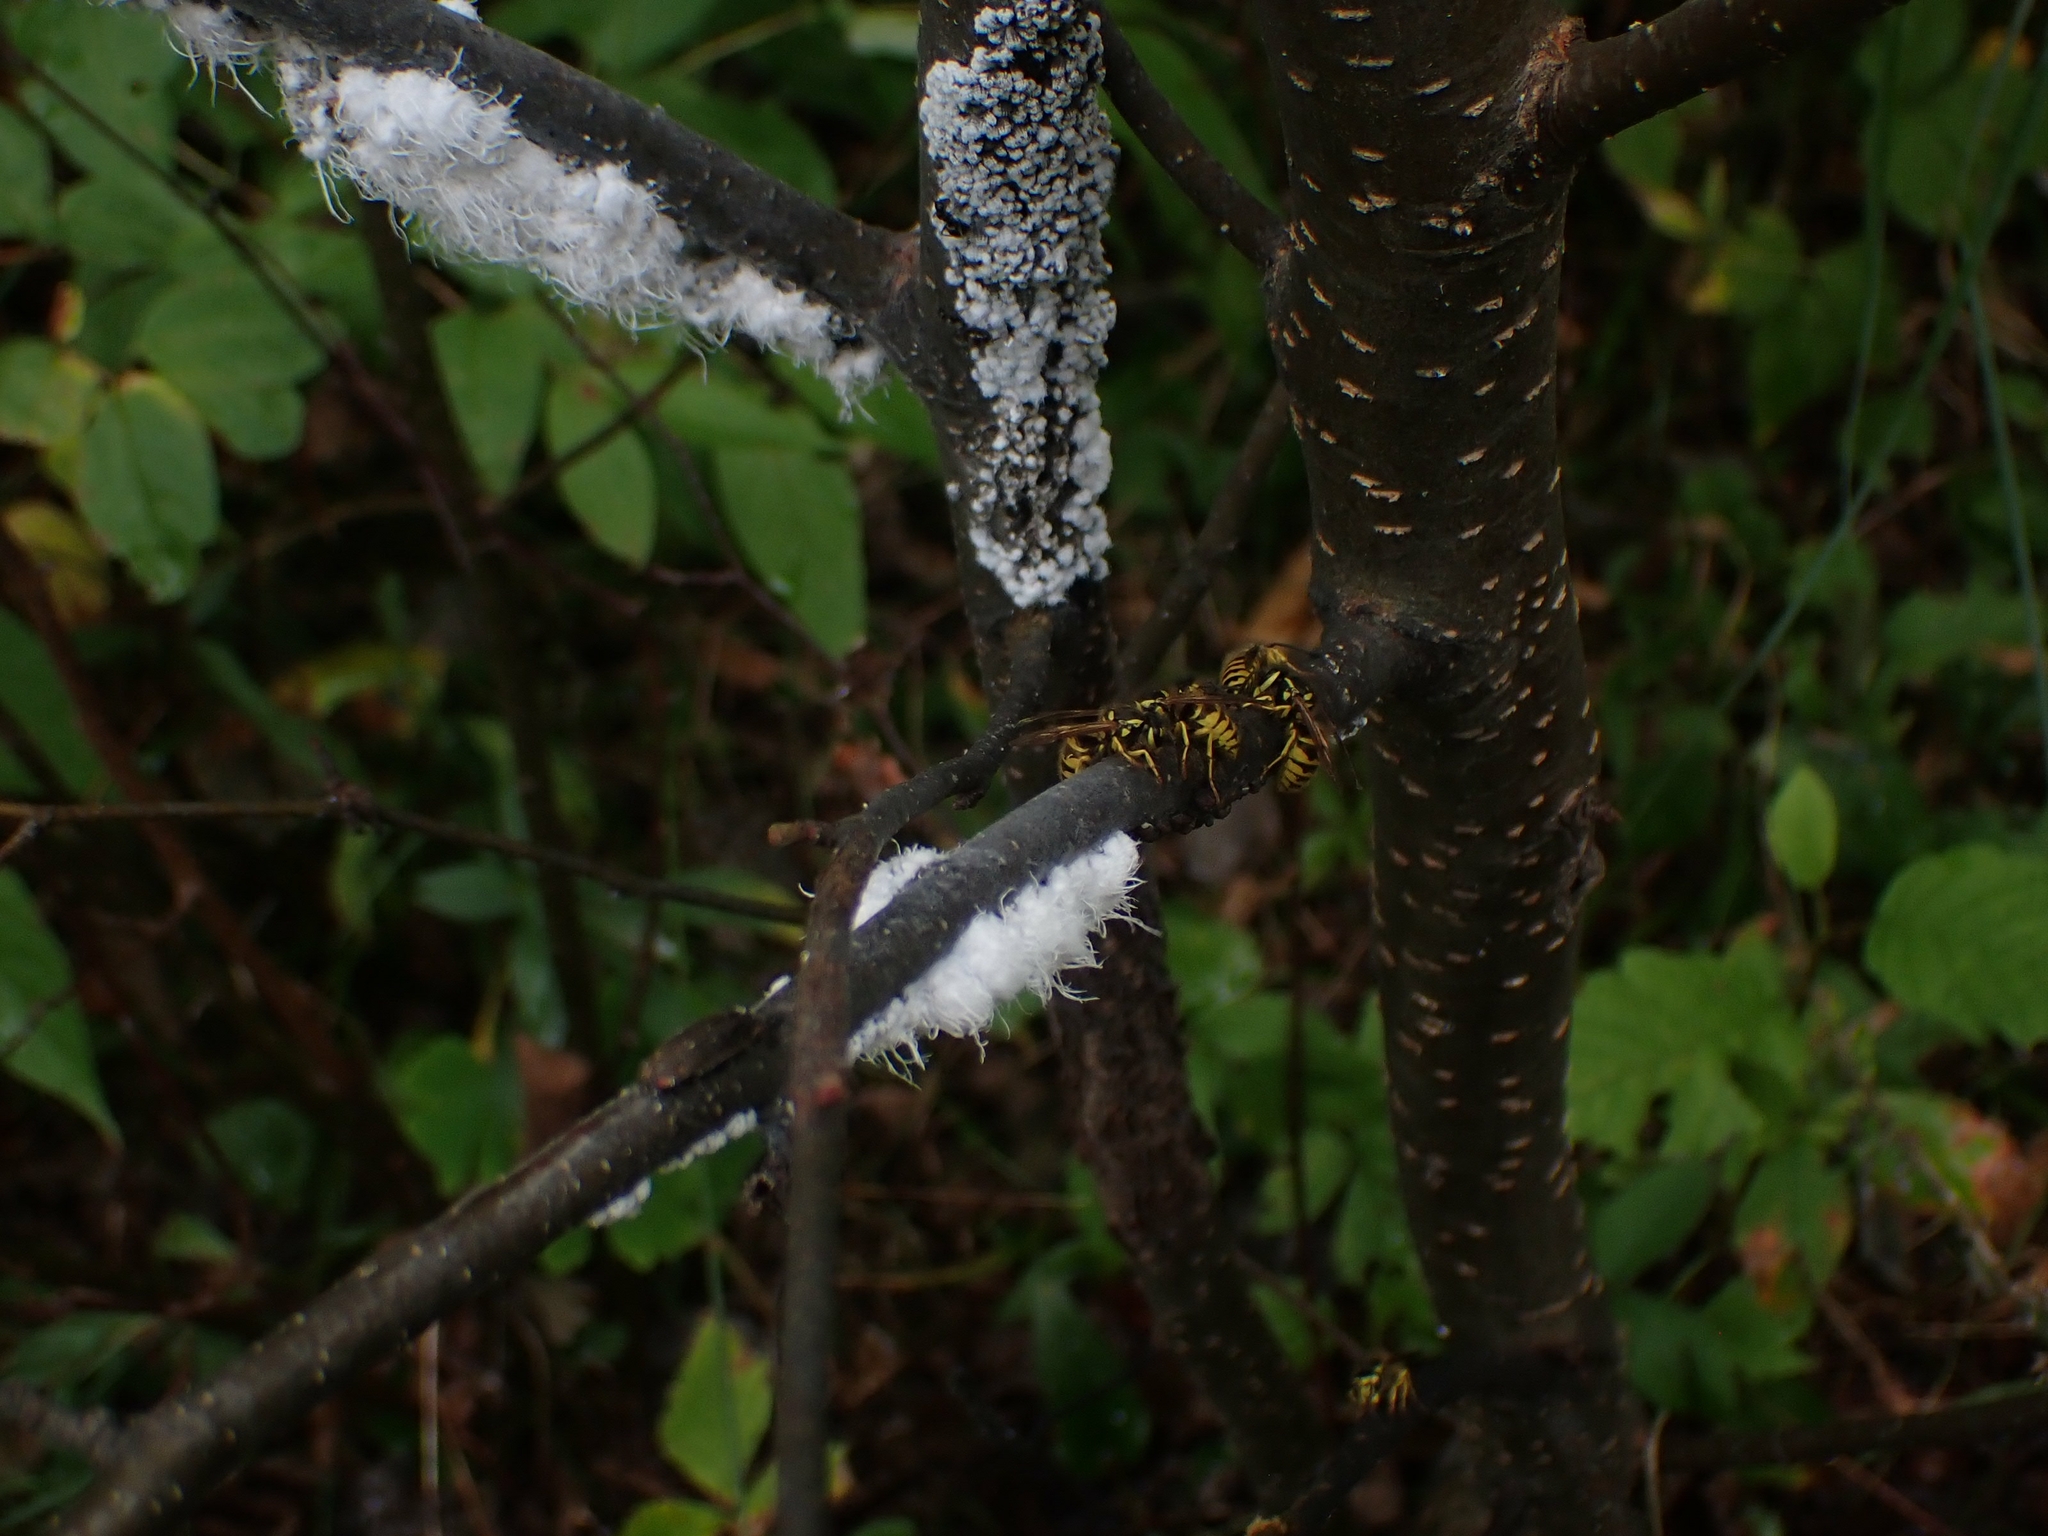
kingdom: Animalia
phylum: Arthropoda
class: Insecta
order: Hymenoptera
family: Vespidae
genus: Vespula
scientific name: Vespula flavopilosa
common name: Downy yellowjacket
